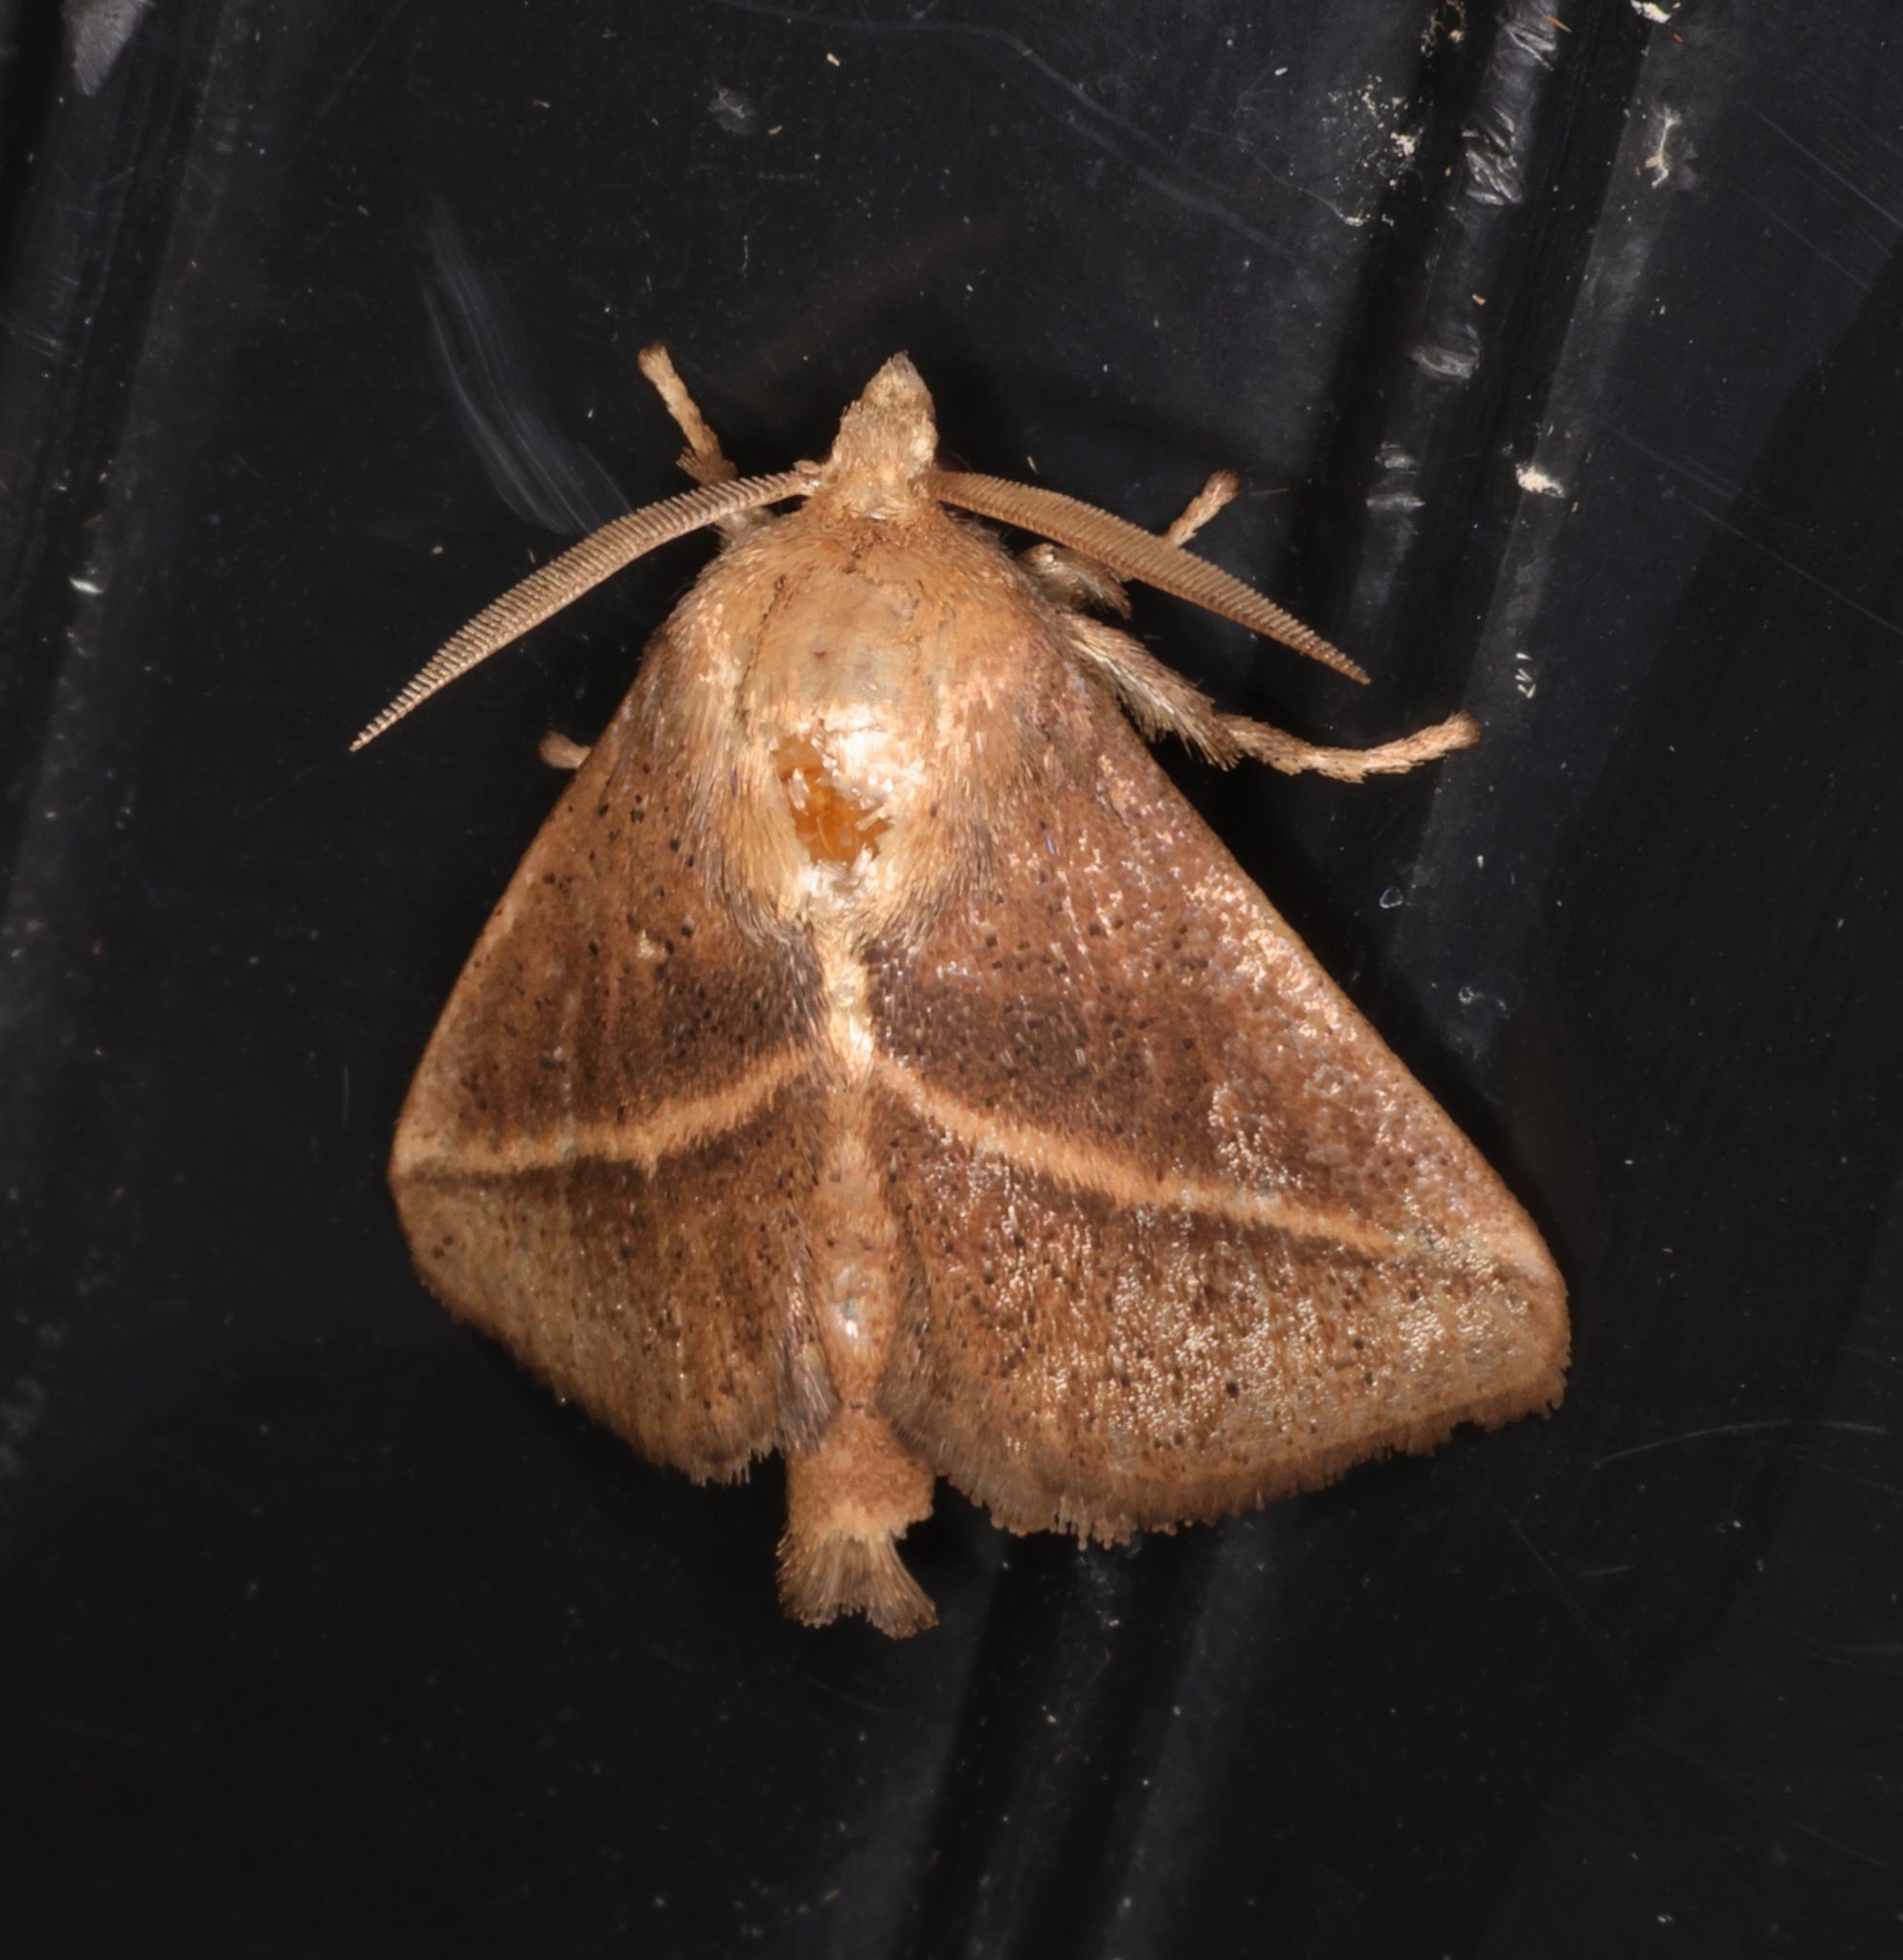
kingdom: Animalia
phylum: Arthropoda
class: Insecta
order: Lepidoptera
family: Limacodidae
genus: Quasithosea
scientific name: Quasithosea obliquistriga
